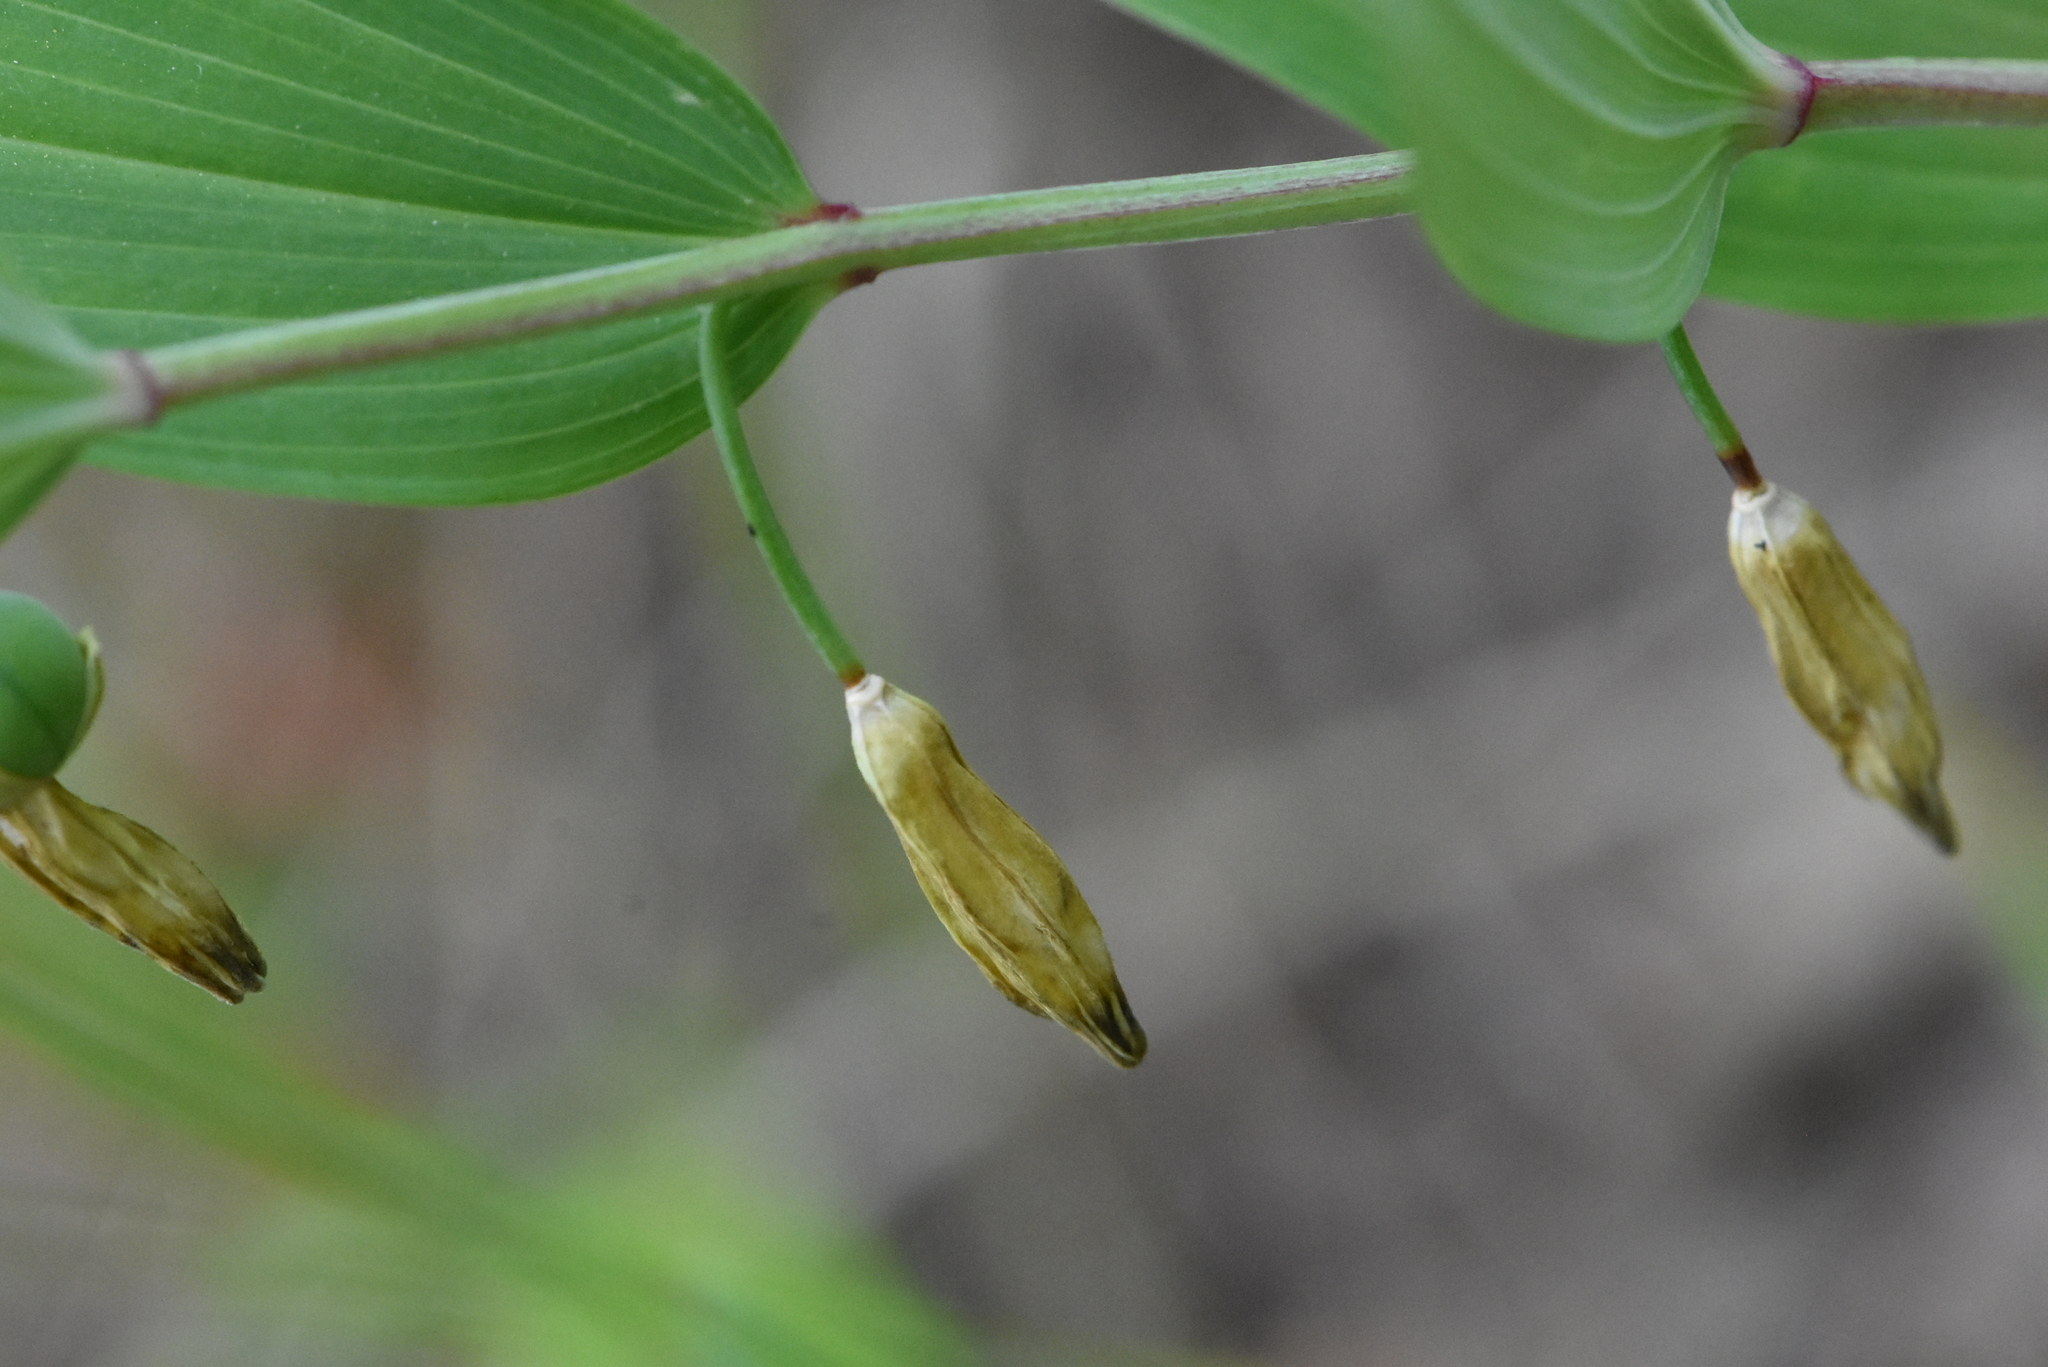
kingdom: Plantae
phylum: Tracheophyta
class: Liliopsida
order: Asparagales
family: Asparagaceae
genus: Polygonatum
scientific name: Polygonatum odoratum
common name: Angular solomon's-seal
